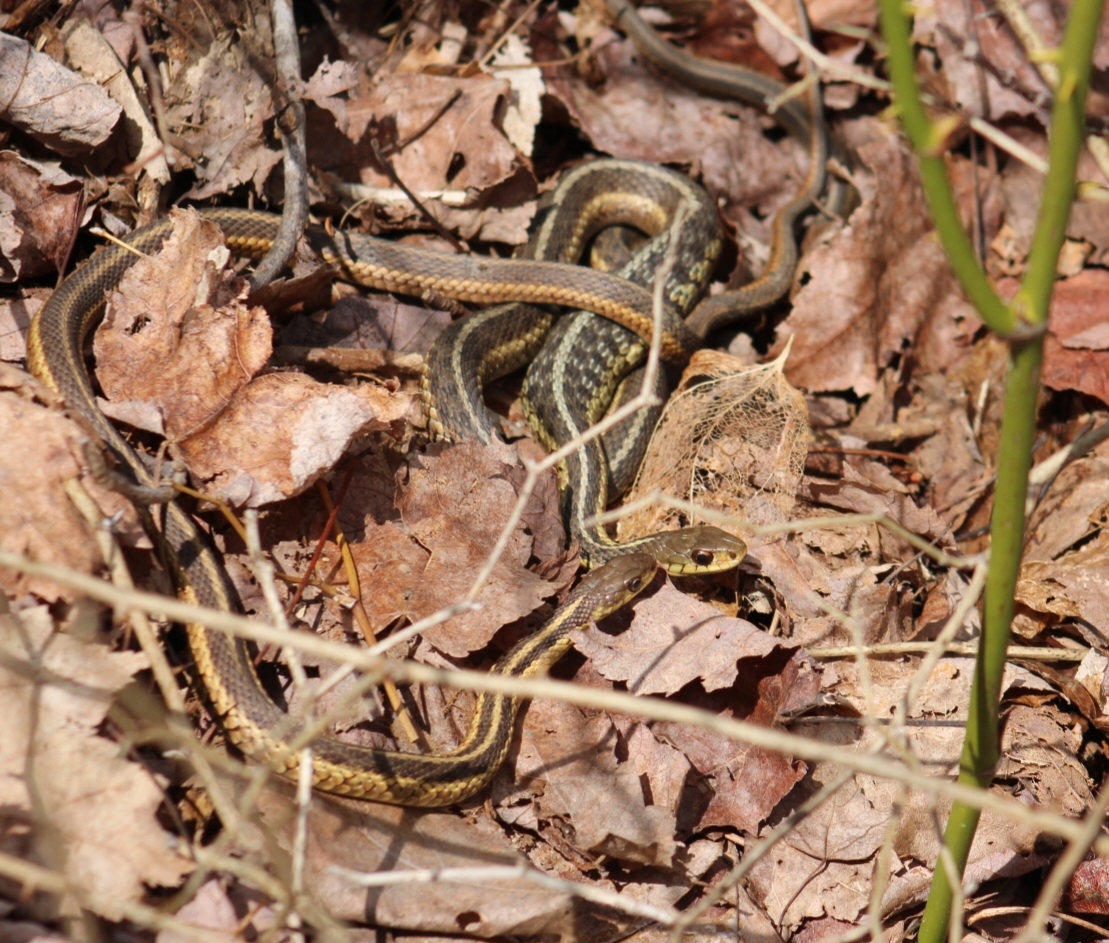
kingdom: Animalia
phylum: Chordata
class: Squamata
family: Colubridae
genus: Thamnophis
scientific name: Thamnophis sirtalis
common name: Common garter snake
